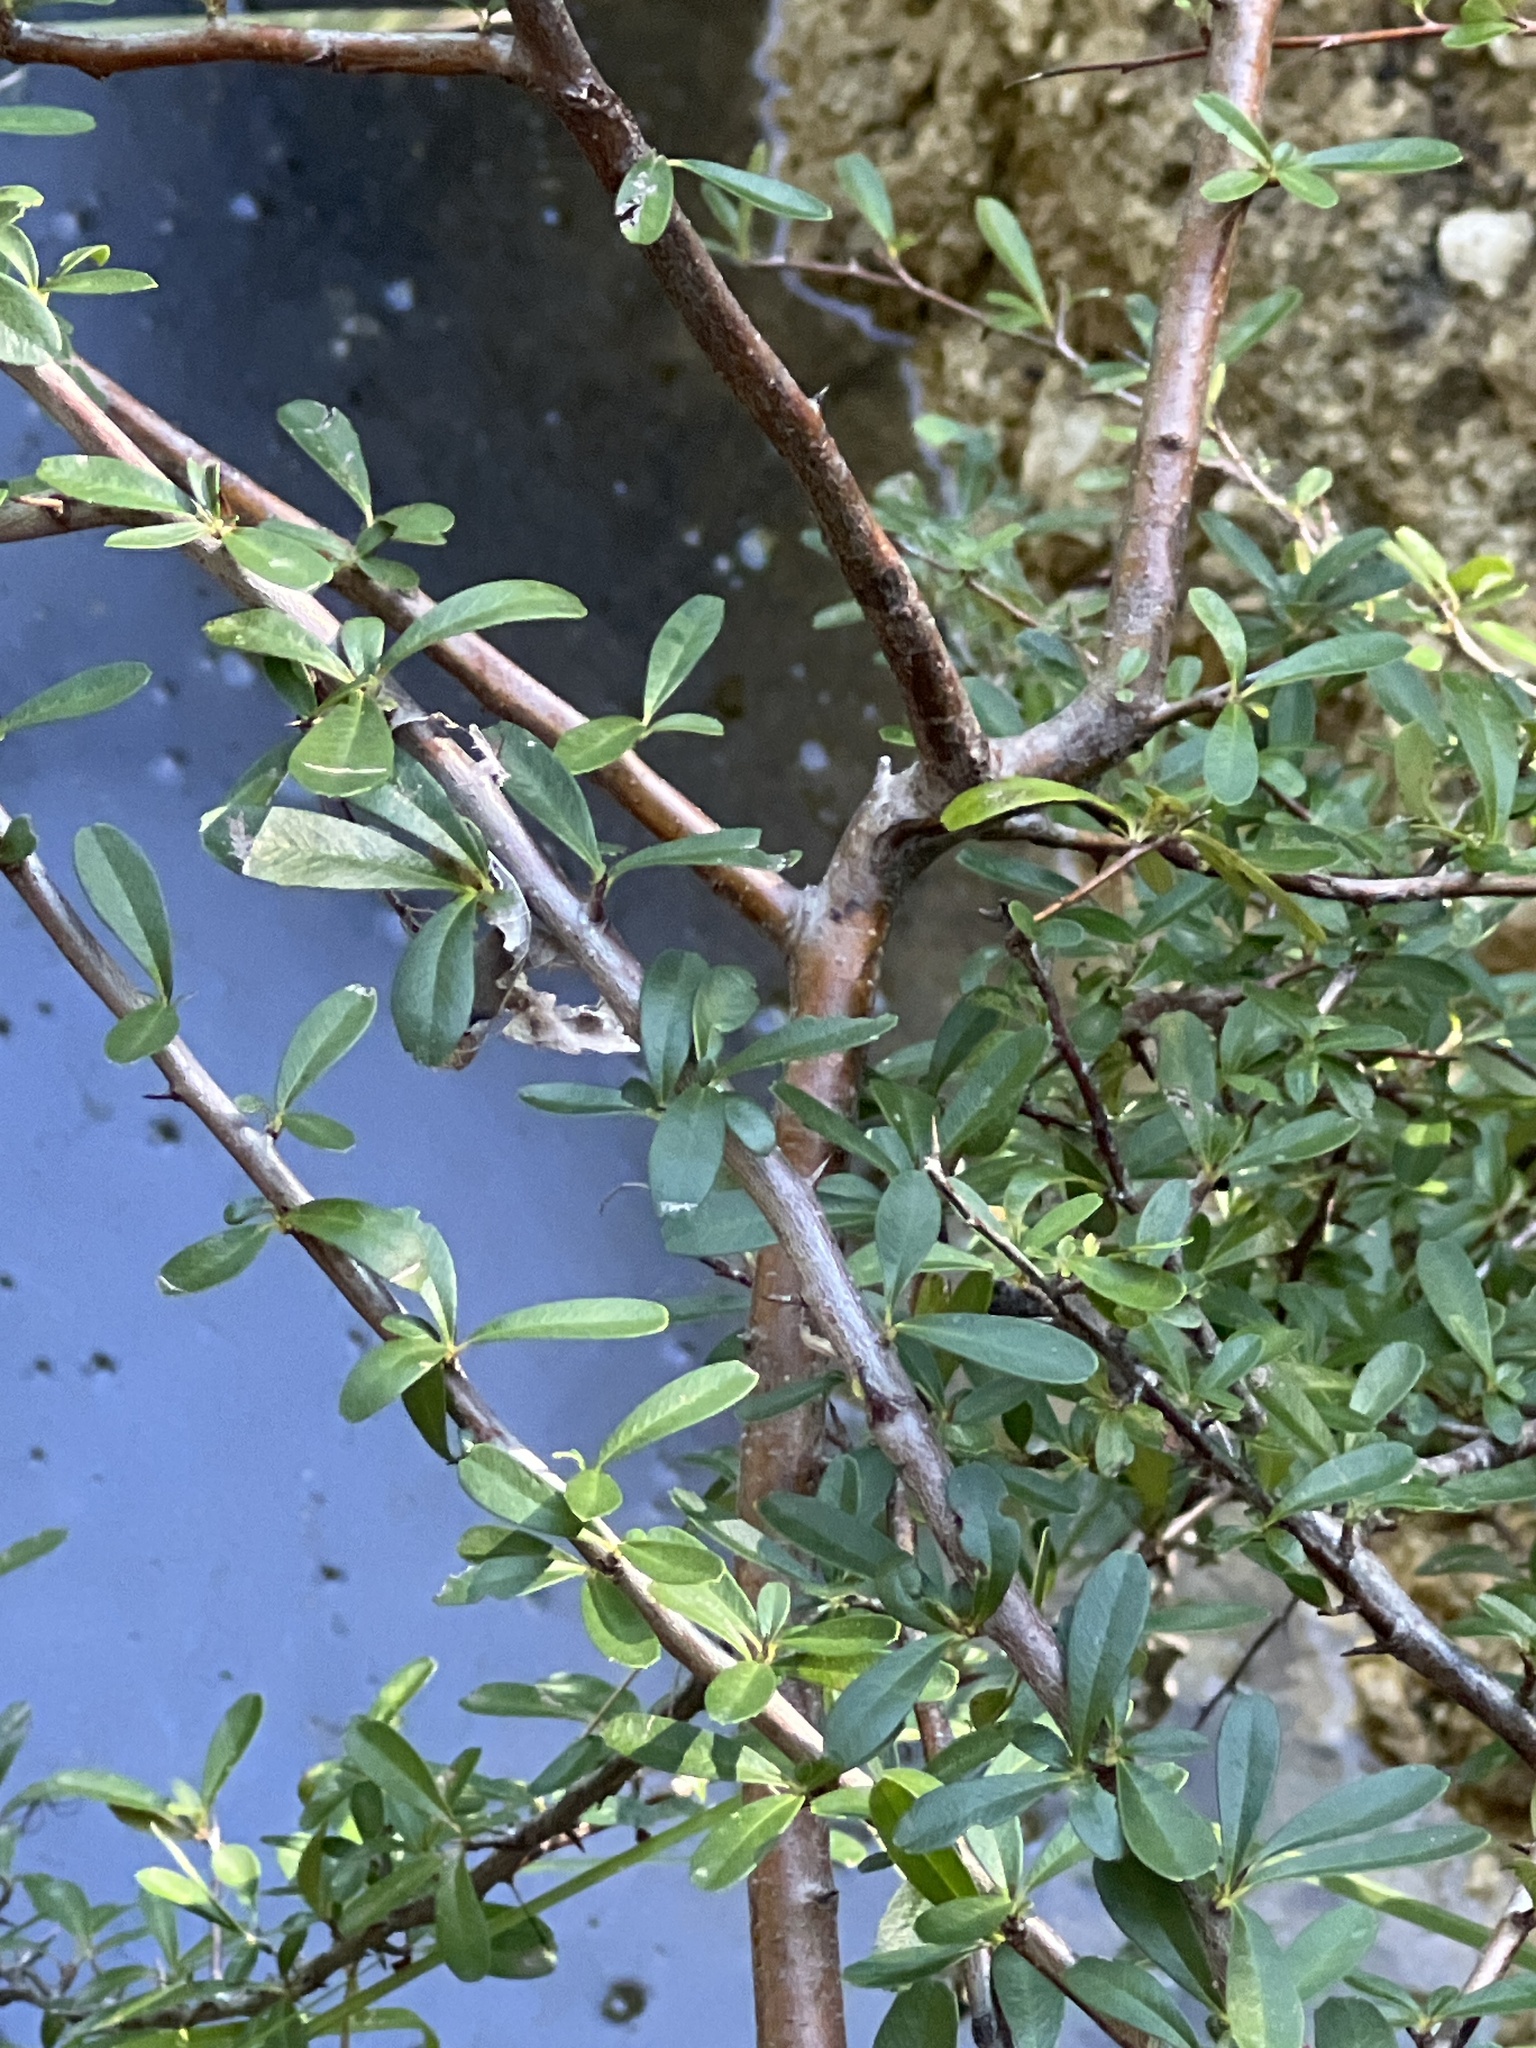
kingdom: Plantae
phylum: Tracheophyta
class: Magnoliopsida
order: Rosales
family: Rosaceae
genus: Pyracantha
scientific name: Pyracantha koidzumii
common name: Formosa firethorn
